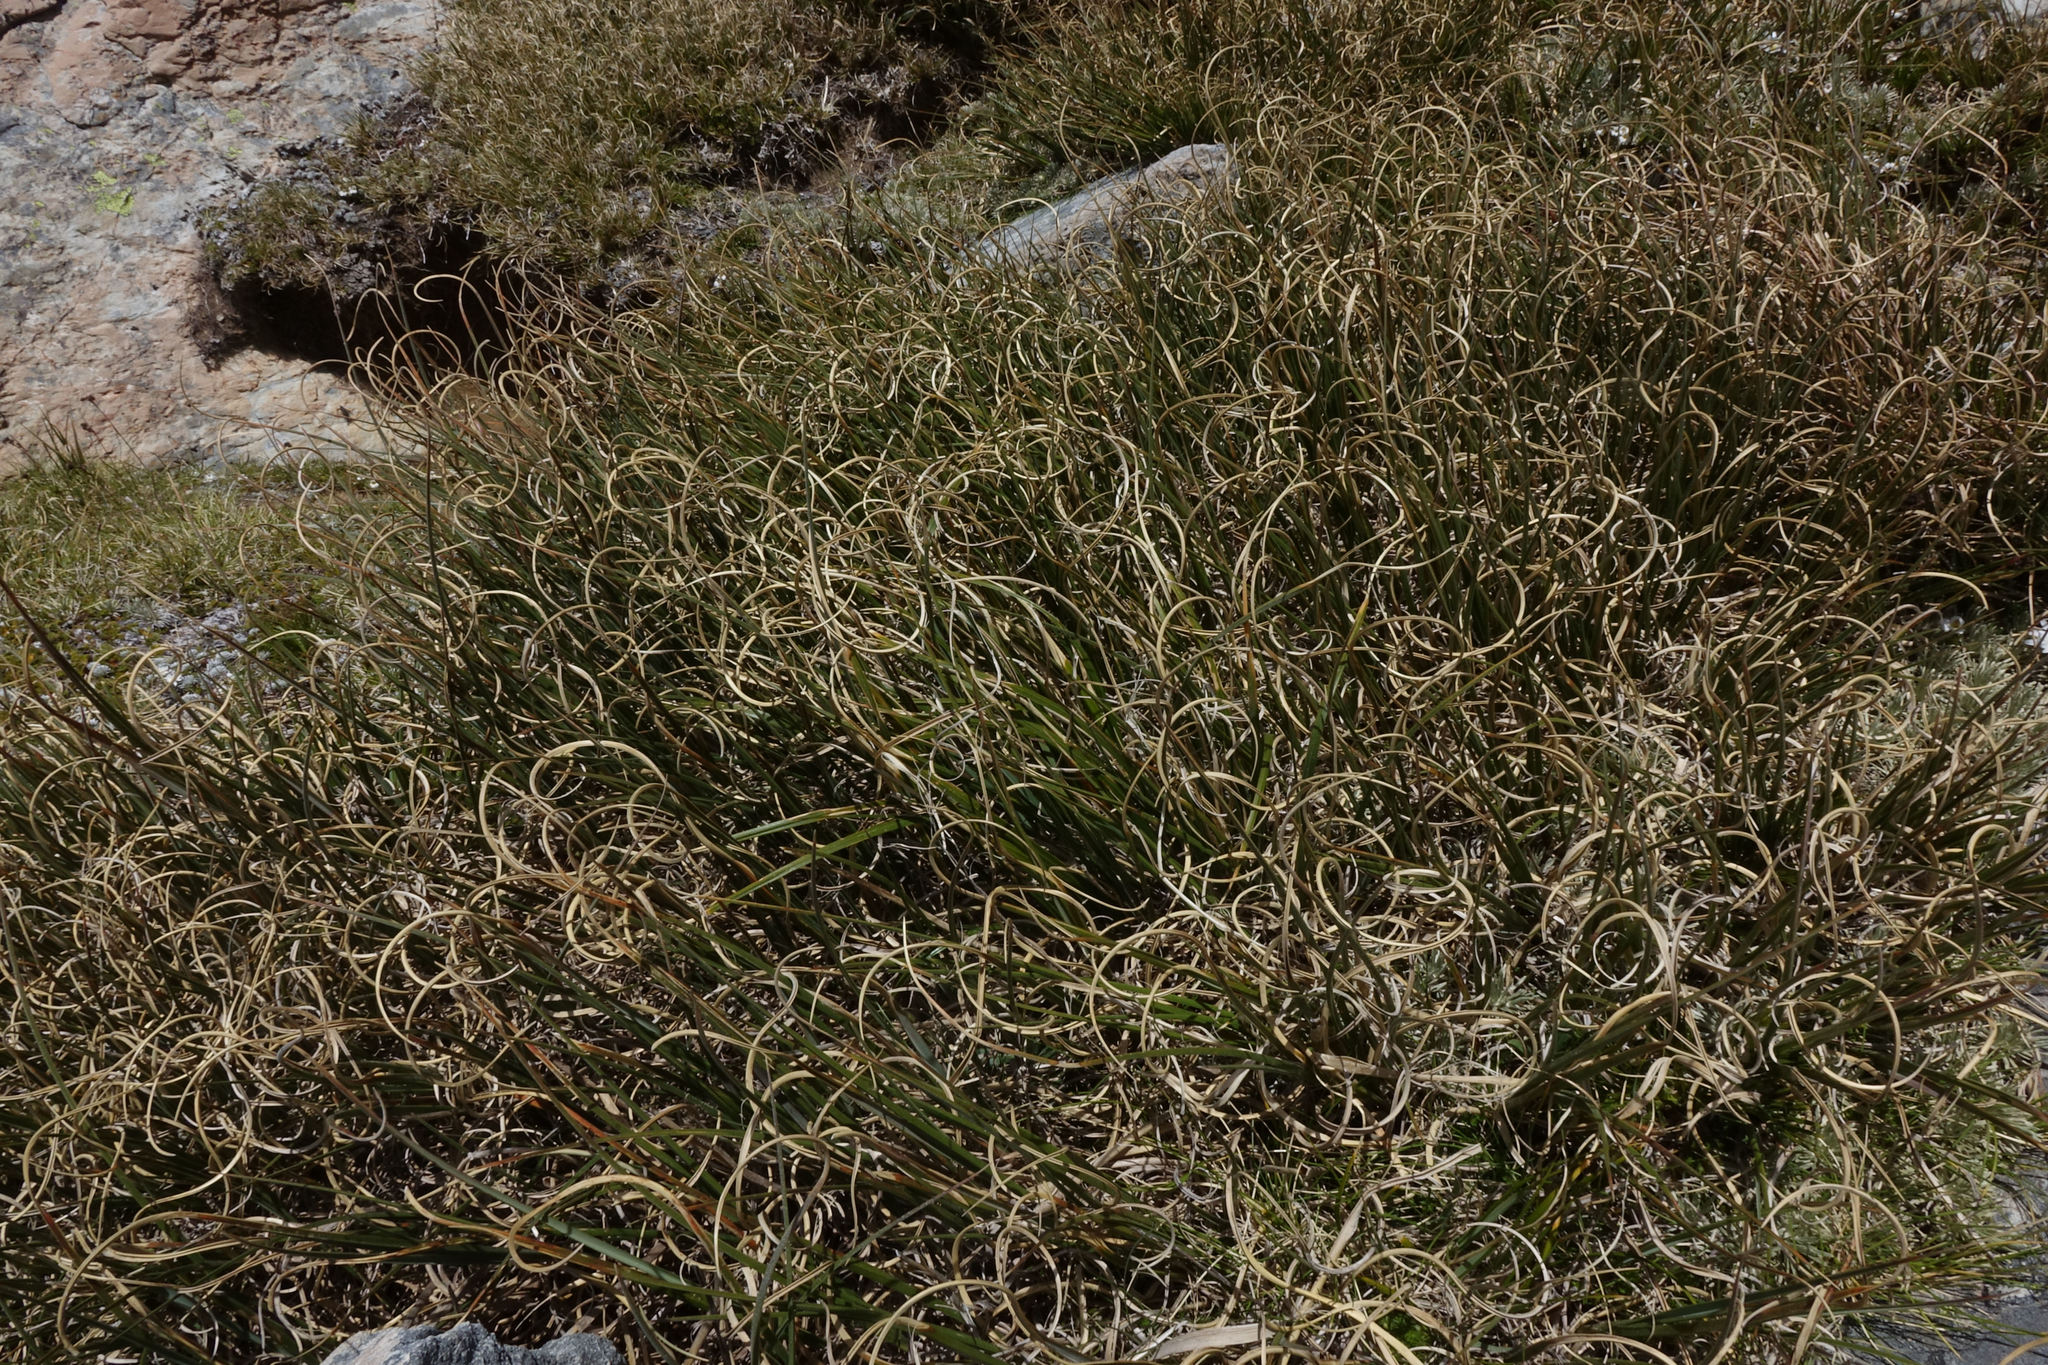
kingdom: Plantae
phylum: Tracheophyta
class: Liliopsida
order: Poales
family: Poaceae
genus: Chionochloa
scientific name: Chionochloa crassiuscula
